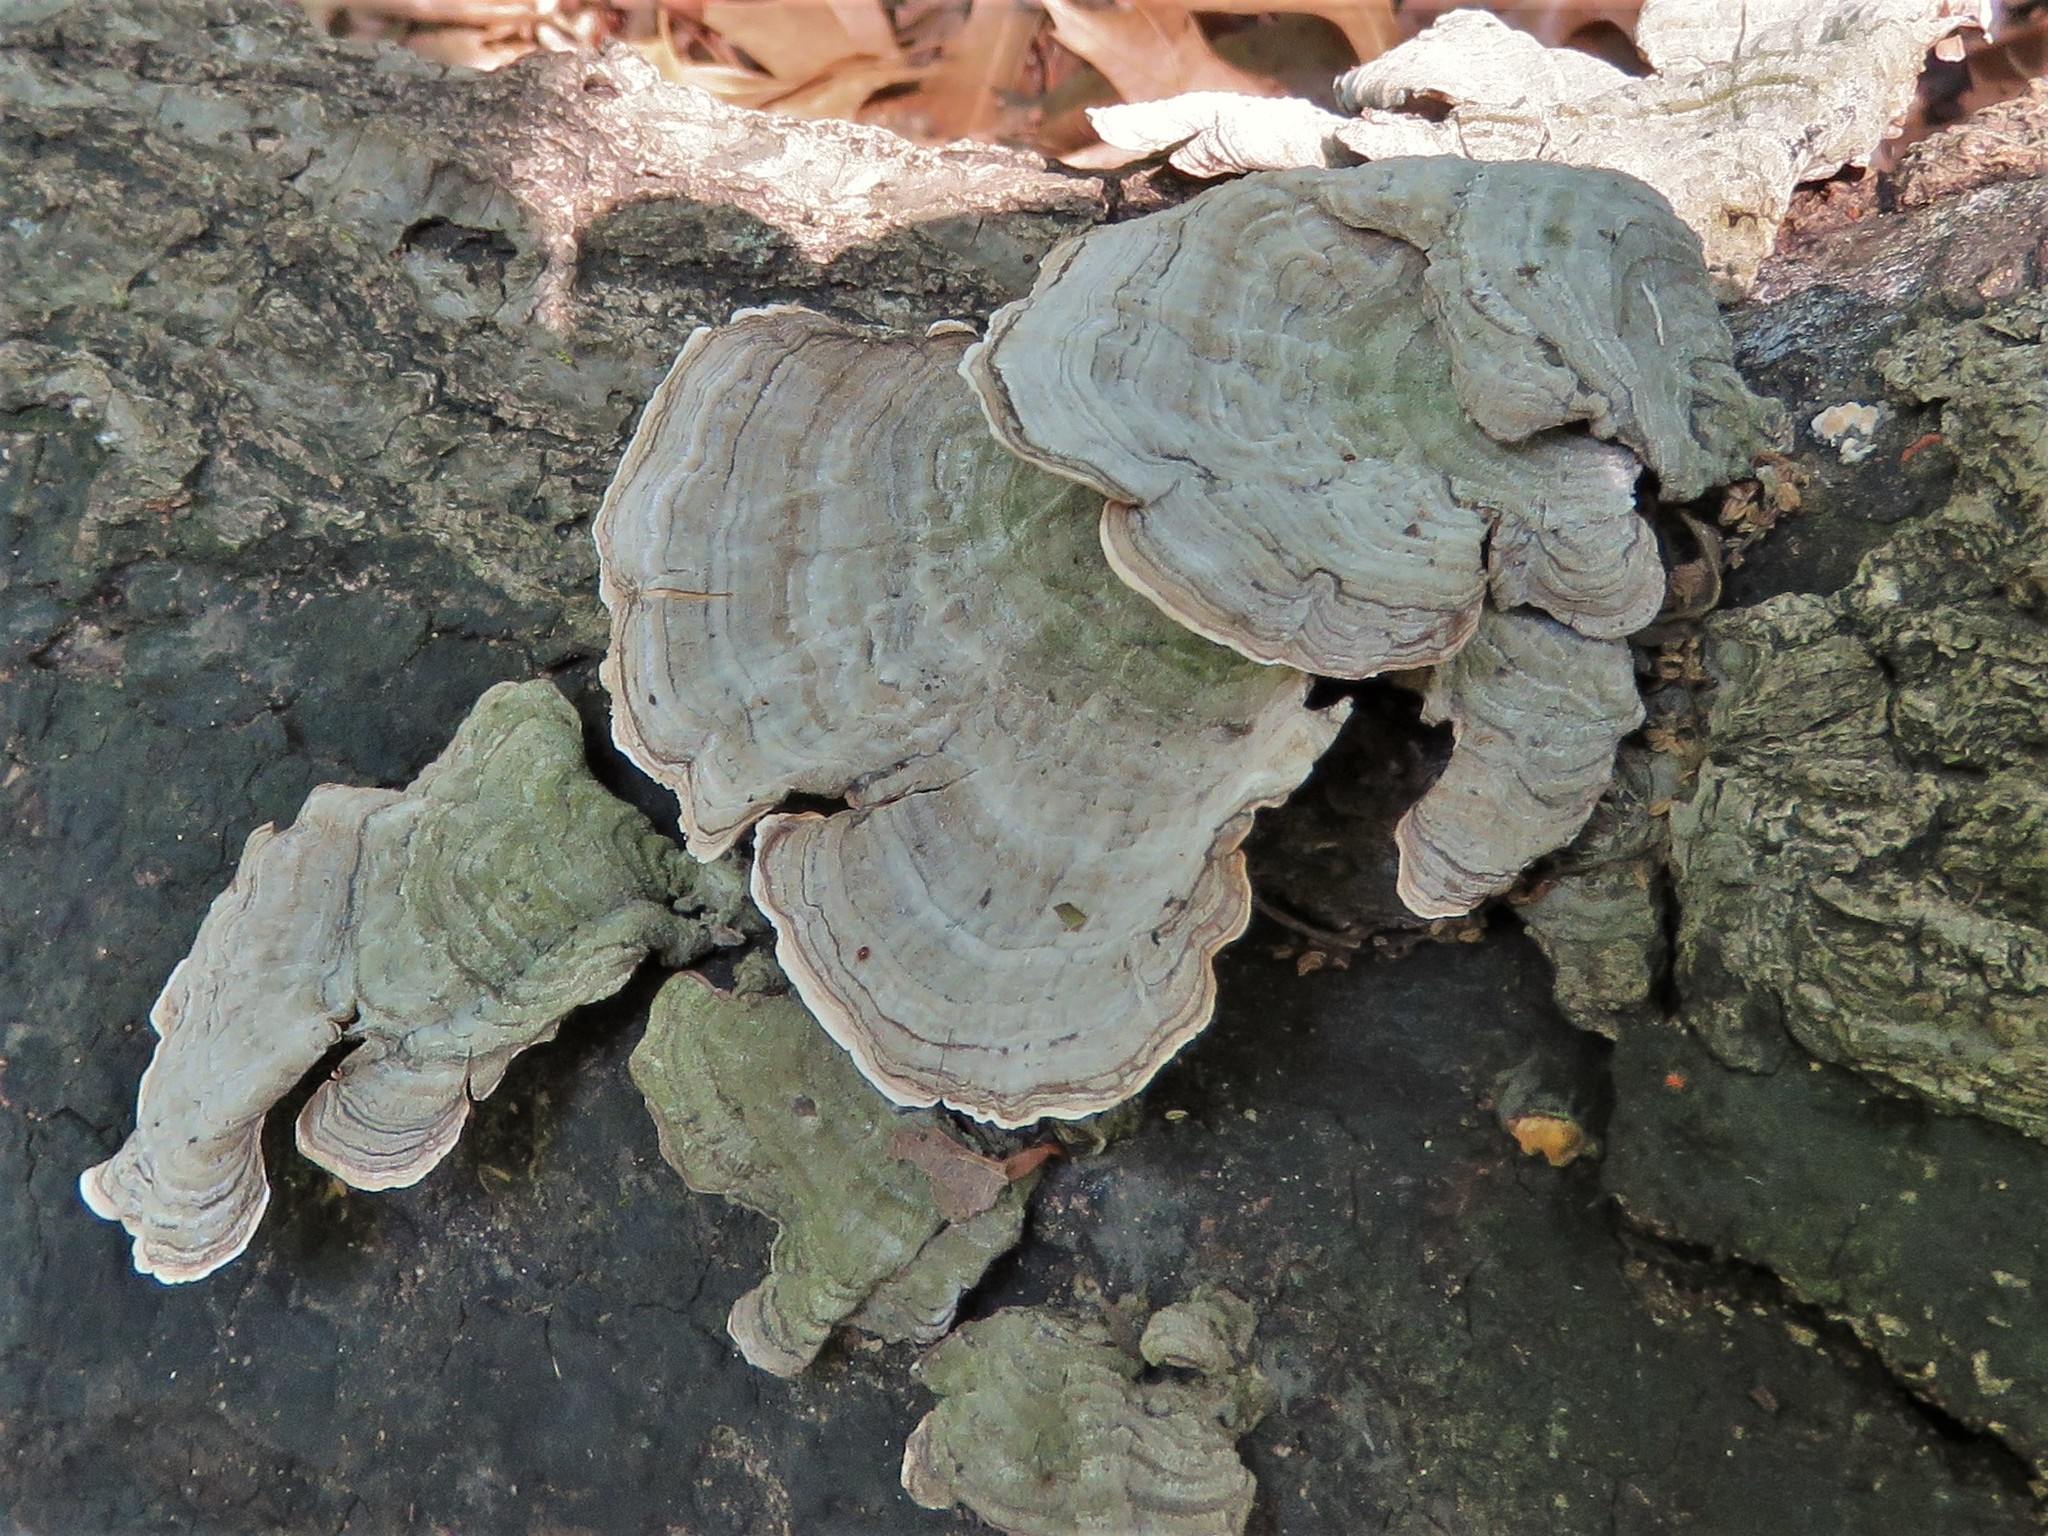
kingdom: Fungi
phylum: Basidiomycota
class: Agaricomycetes
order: Russulales
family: Stereaceae
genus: Stereum
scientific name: Stereum ostrea
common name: False turkeytail
